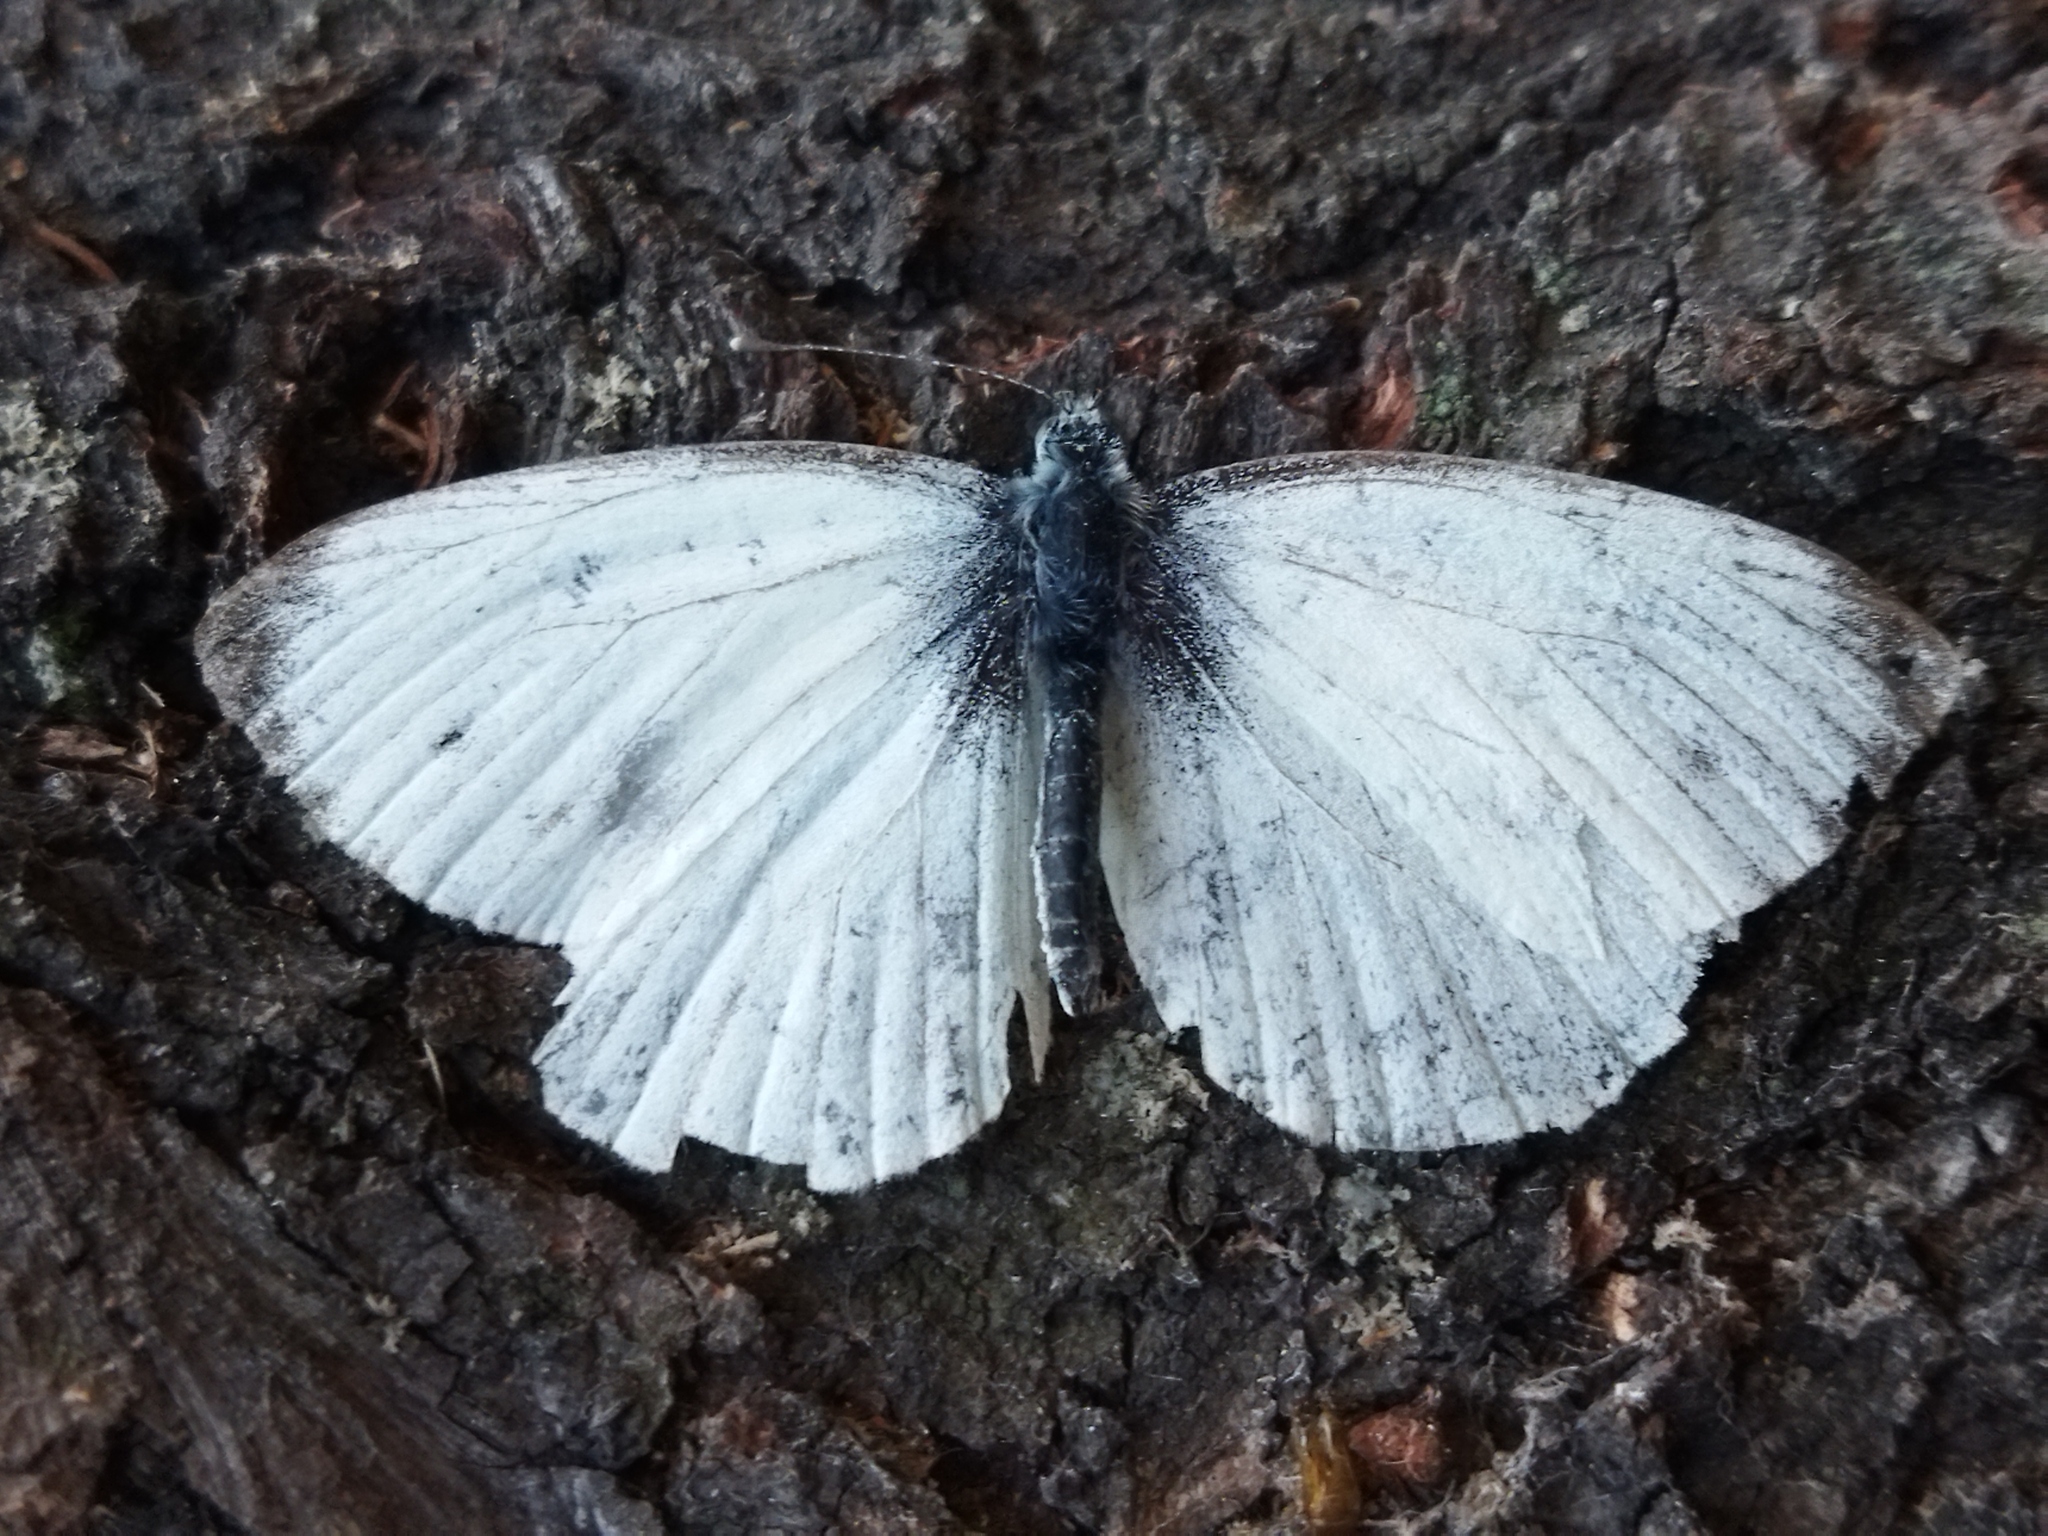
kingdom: Animalia
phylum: Arthropoda
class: Insecta
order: Lepidoptera
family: Pieridae
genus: Pieris
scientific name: Pieris napi
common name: Green-veined white
